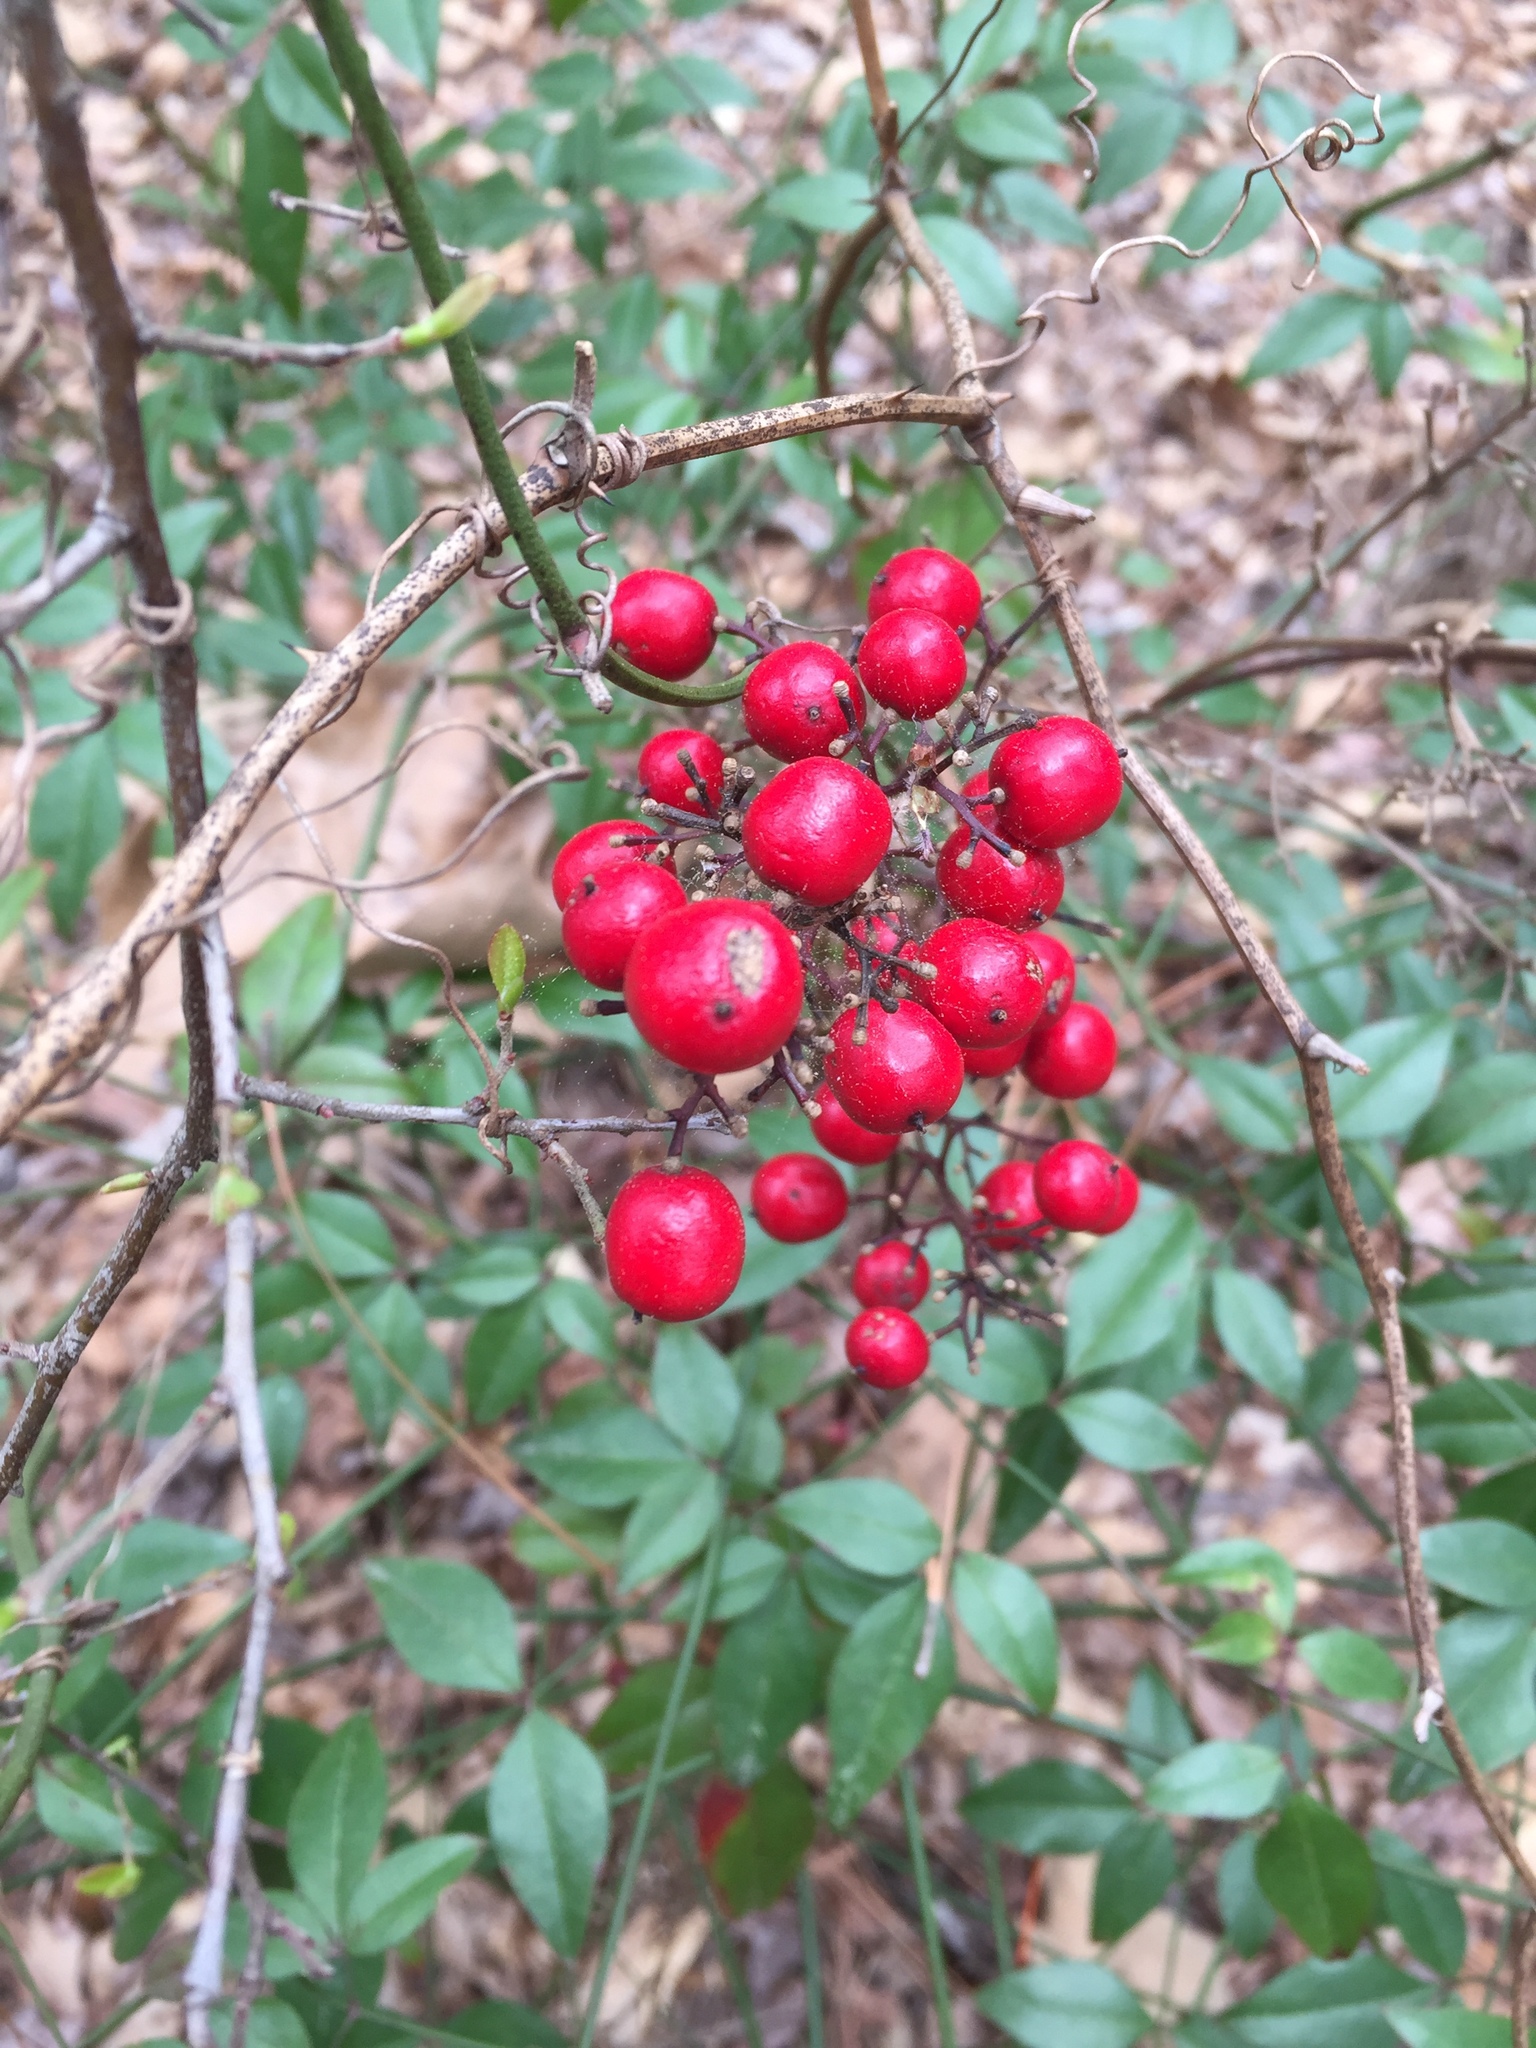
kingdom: Plantae
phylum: Tracheophyta
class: Magnoliopsida
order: Ranunculales
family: Berberidaceae
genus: Nandina
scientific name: Nandina domestica
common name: Sacred bamboo
